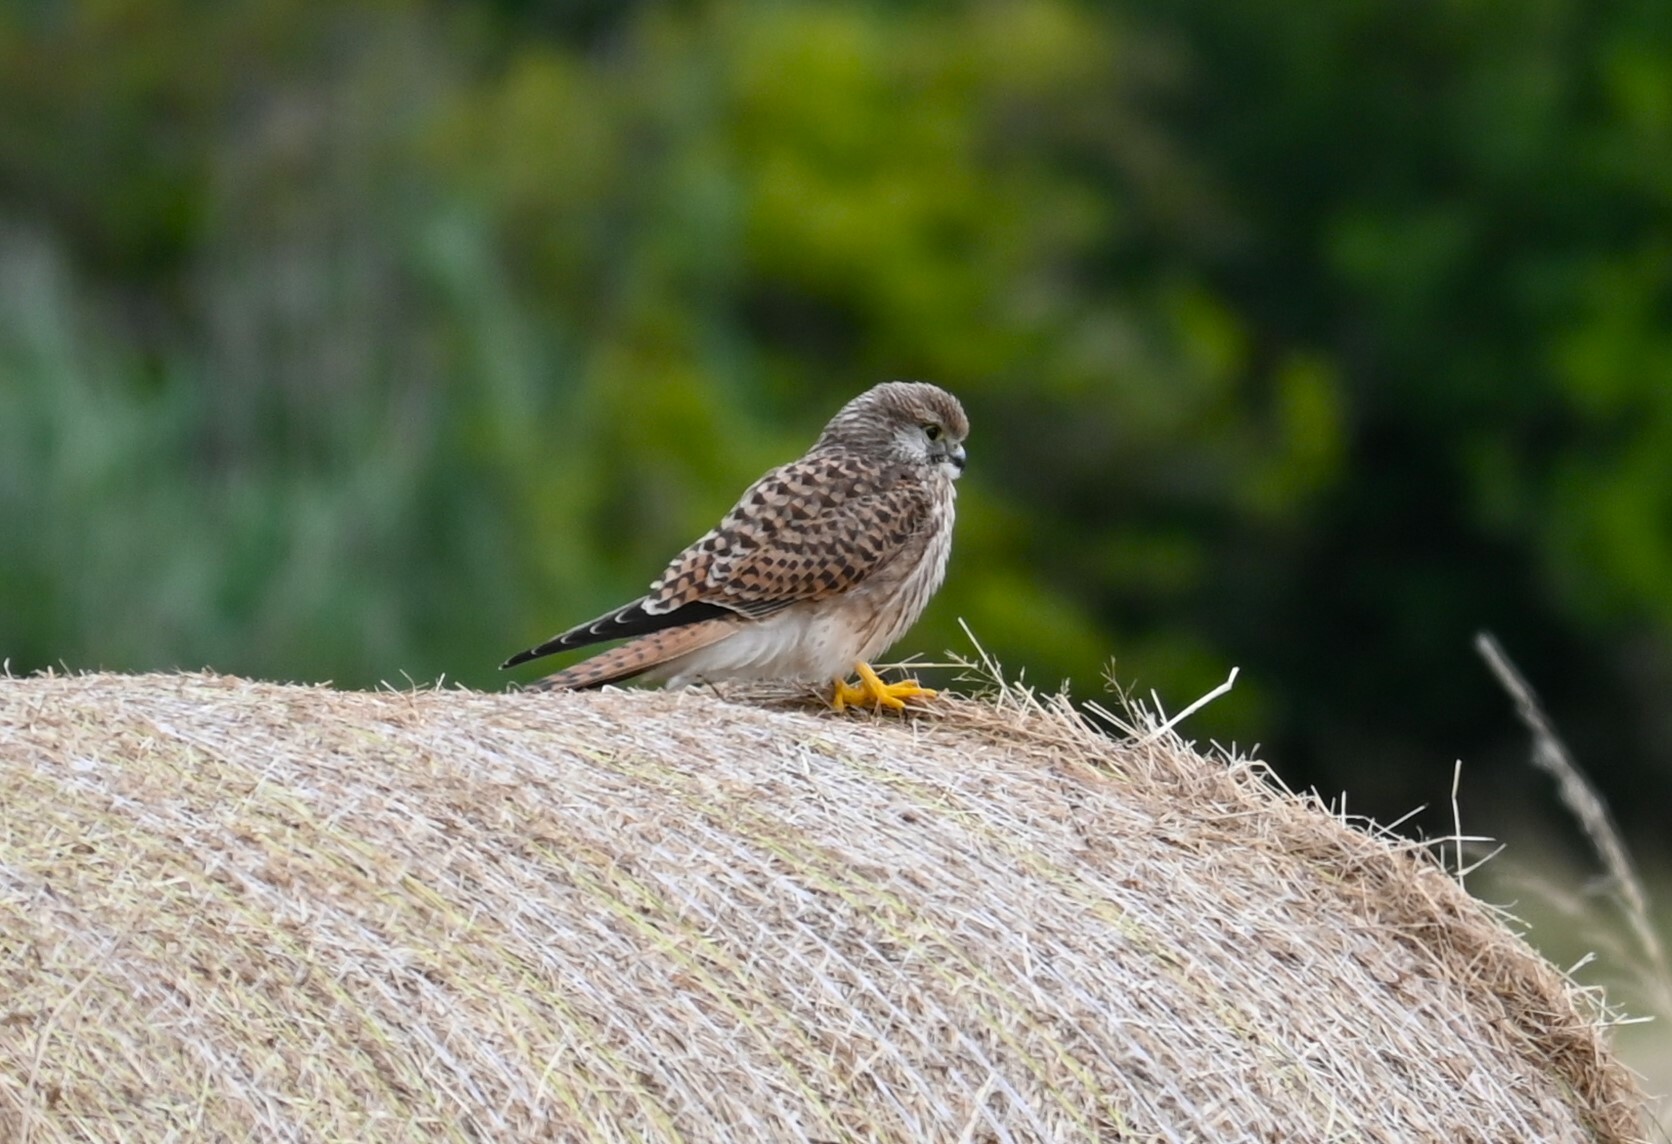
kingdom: Animalia
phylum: Chordata
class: Aves
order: Falconiformes
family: Falconidae
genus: Falco
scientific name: Falco tinnunculus
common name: Common kestrel
